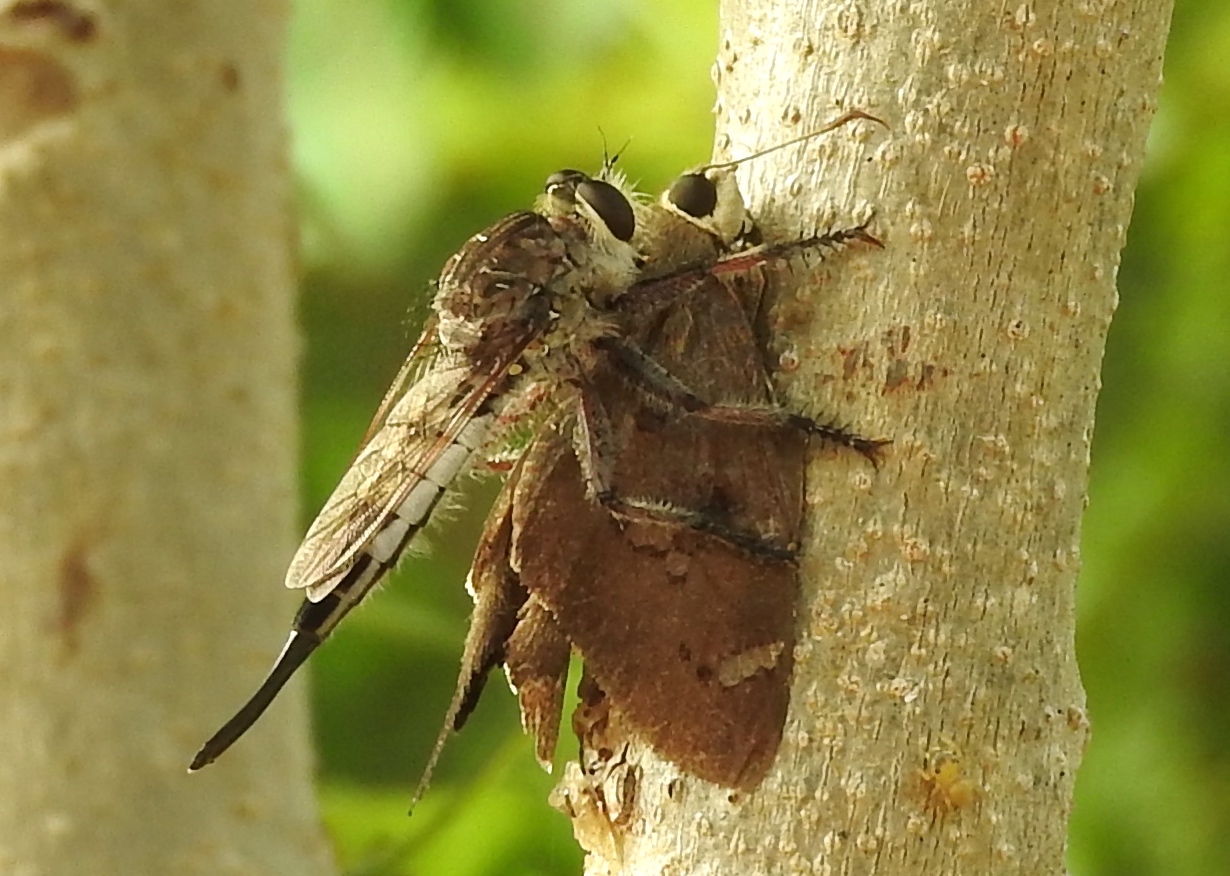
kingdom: Animalia
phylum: Arthropoda
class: Insecta
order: Diptera
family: Asilidae
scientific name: Asilidae
